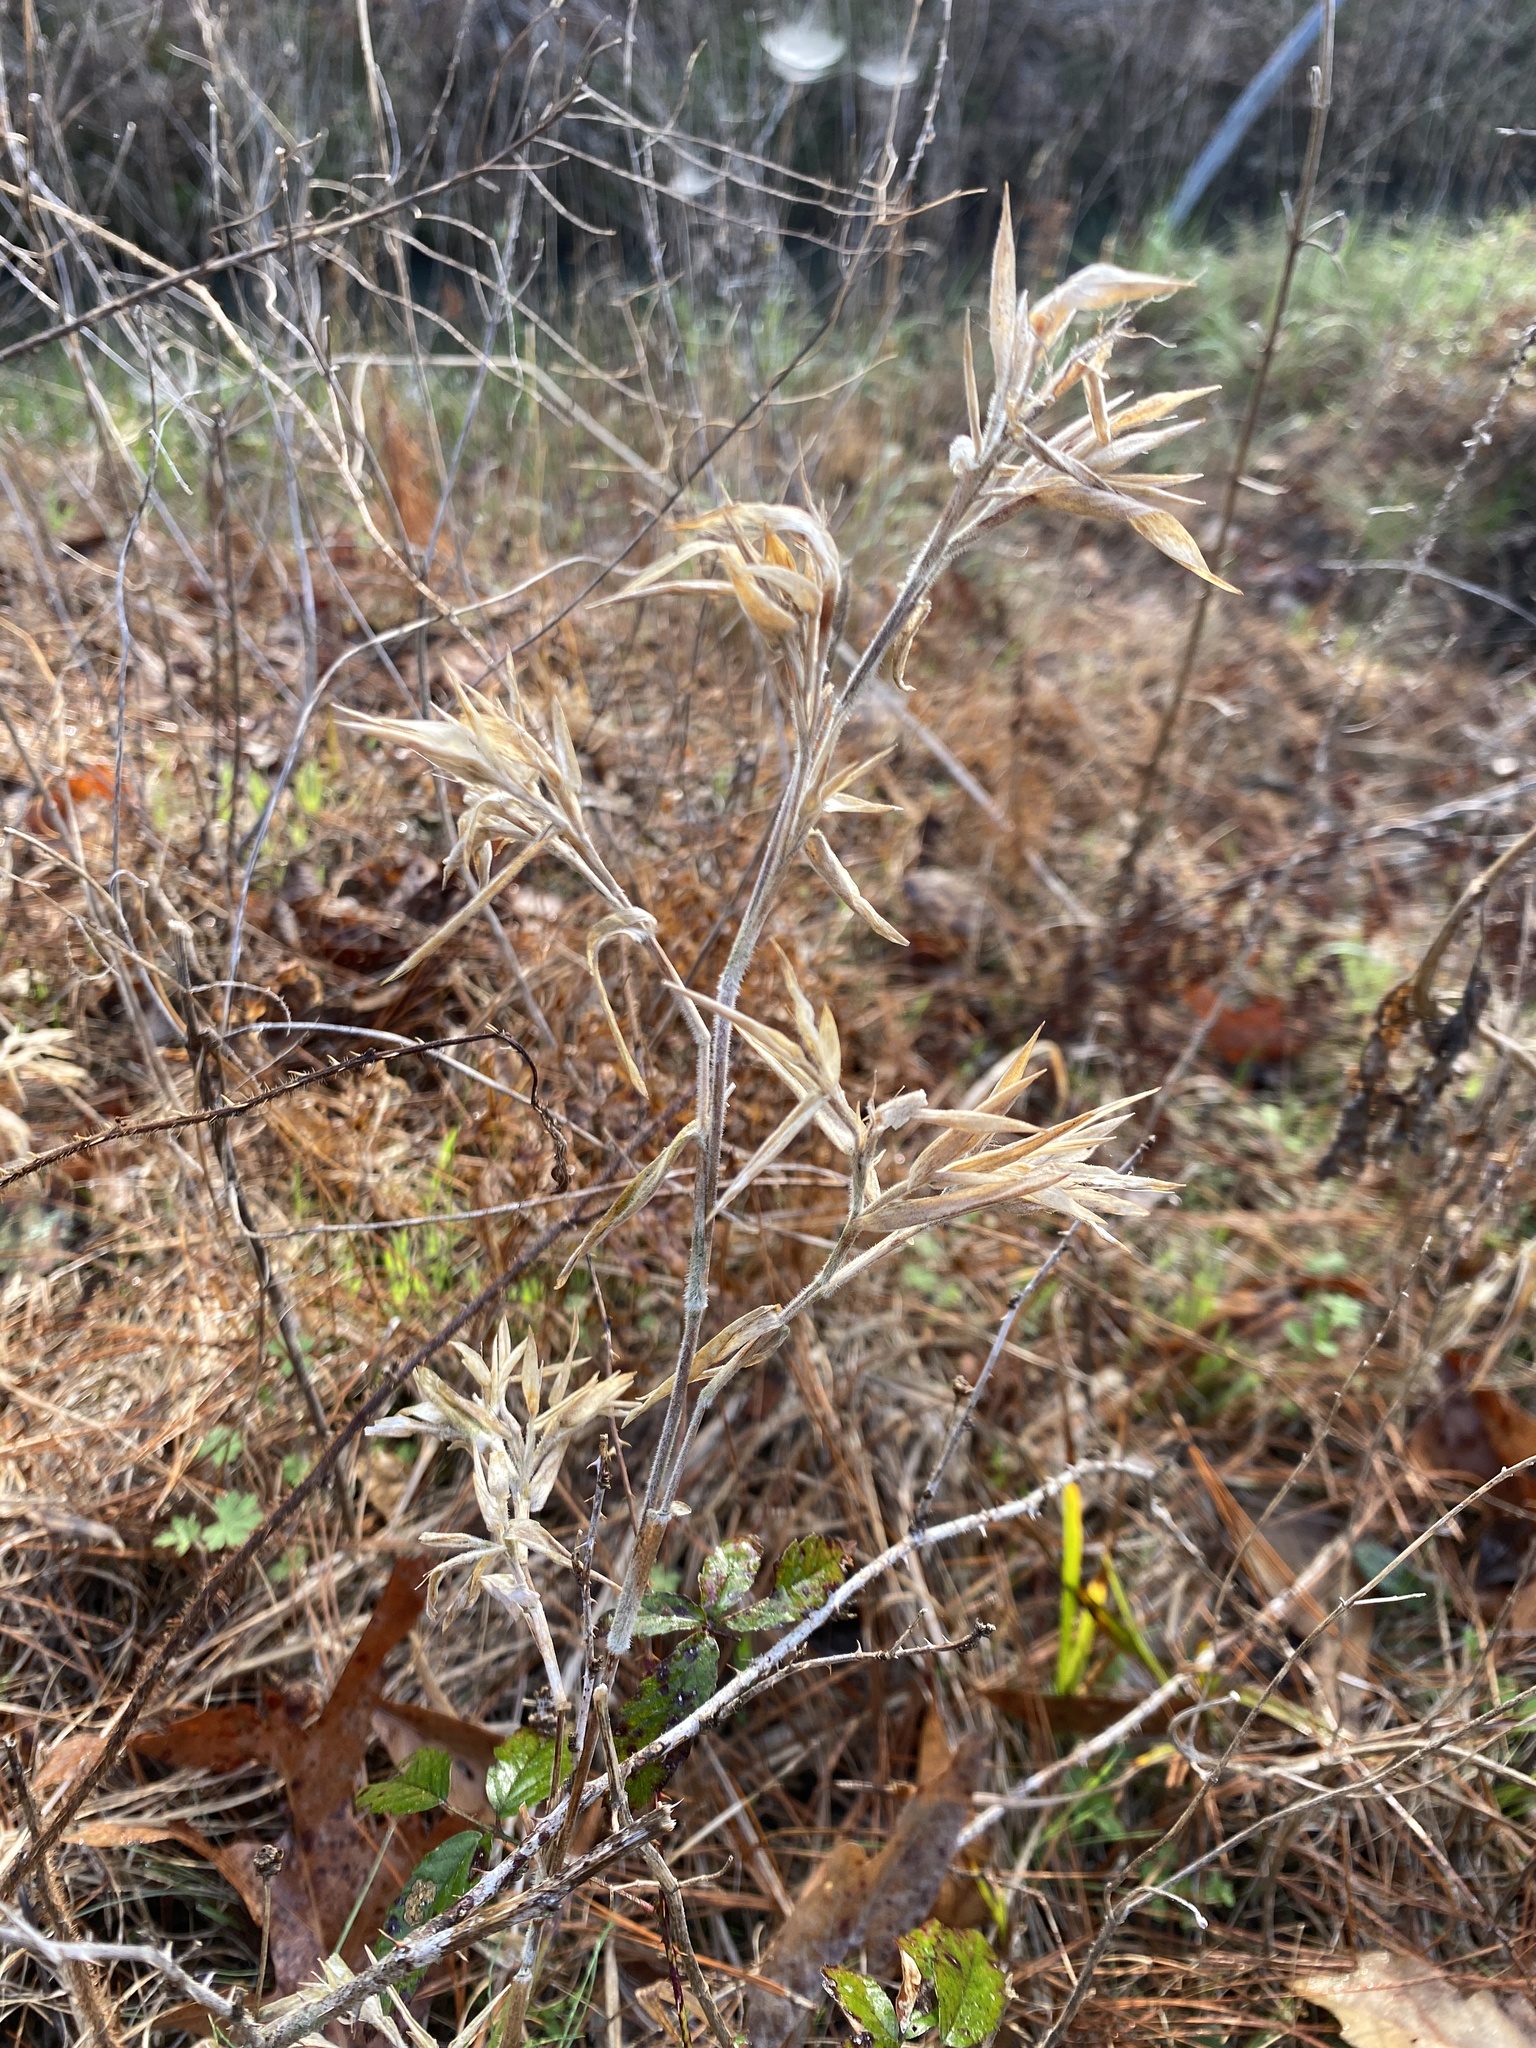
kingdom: Plantae
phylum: Tracheophyta
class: Liliopsida
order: Poales
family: Poaceae
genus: Dichanthelium
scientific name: Dichanthelium scoparium
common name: Velvety panic grass
